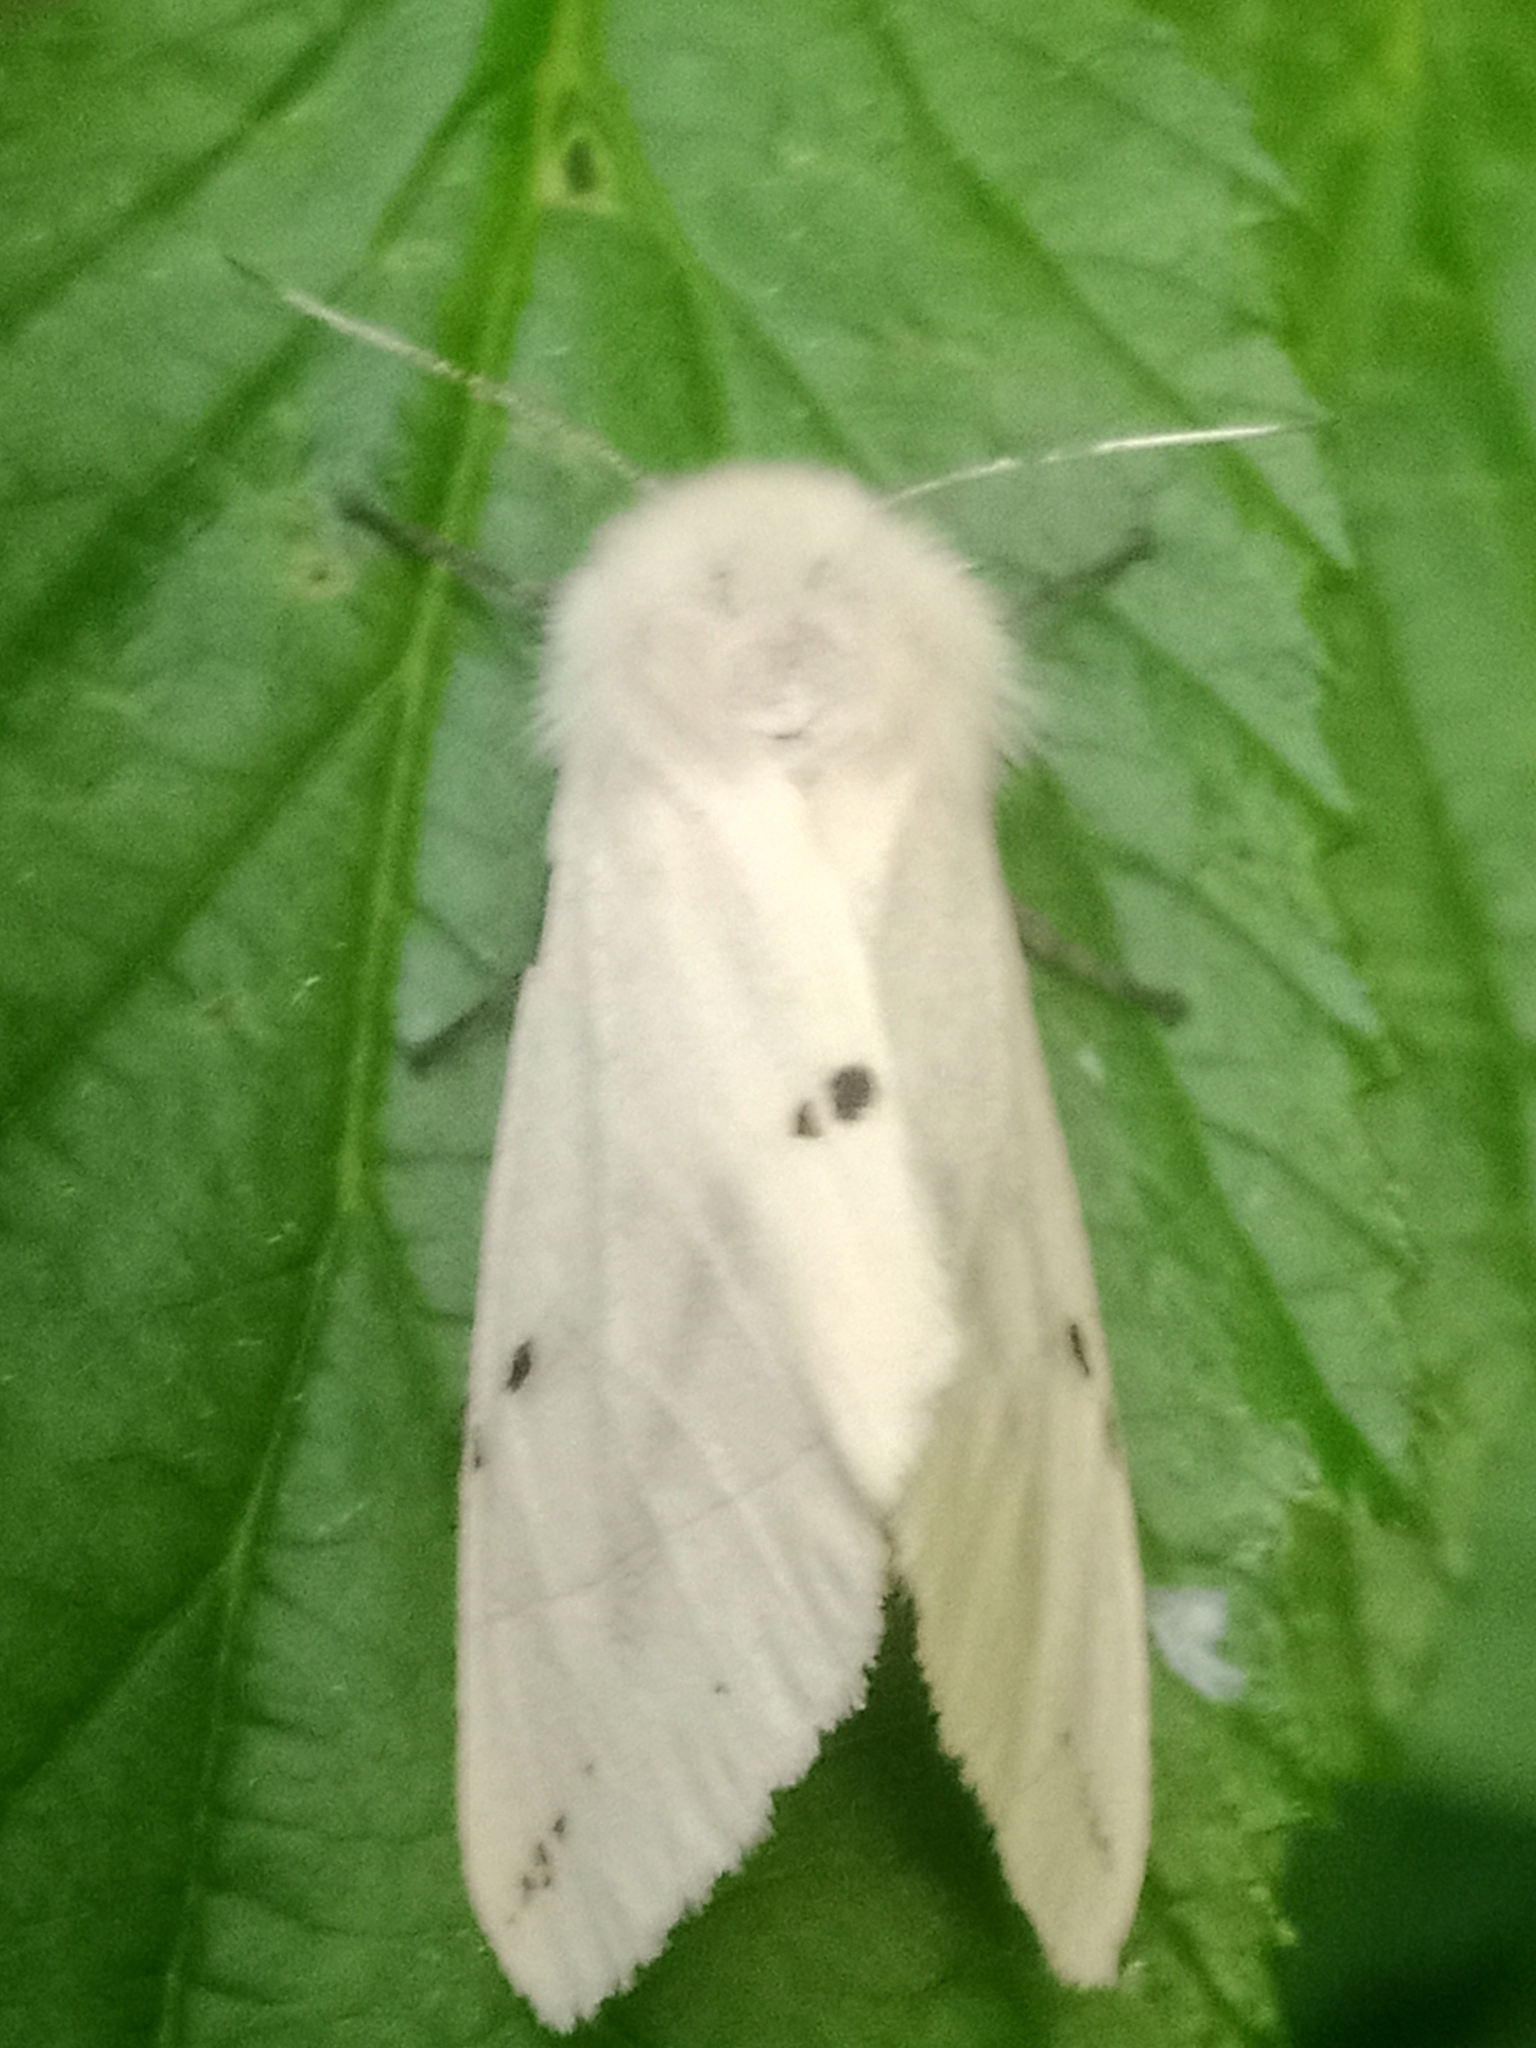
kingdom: Animalia
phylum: Arthropoda
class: Insecta
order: Lepidoptera
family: Erebidae
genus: Spilarctia
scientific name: Spilarctia lutea
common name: Buff ermine
